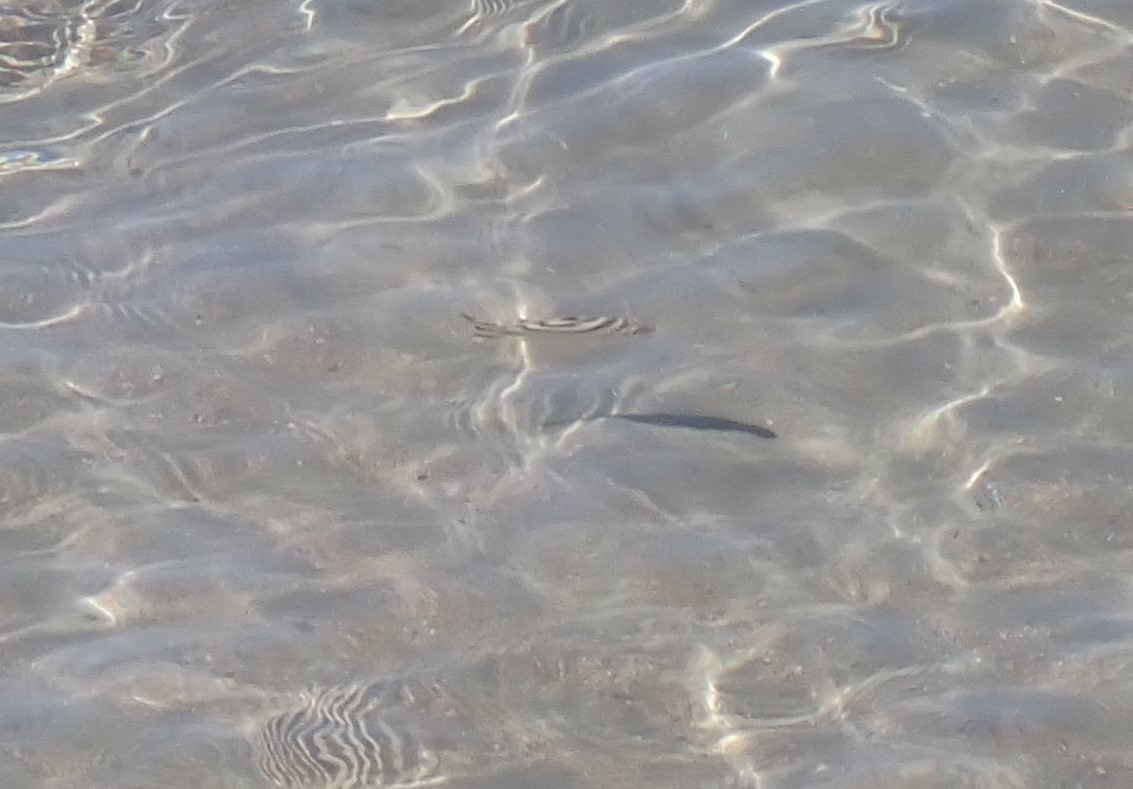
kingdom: Animalia
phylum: Chordata
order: Perciformes
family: Terapontidae
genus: Terapon
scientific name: Terapon jarbua
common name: Jarbua terapon
